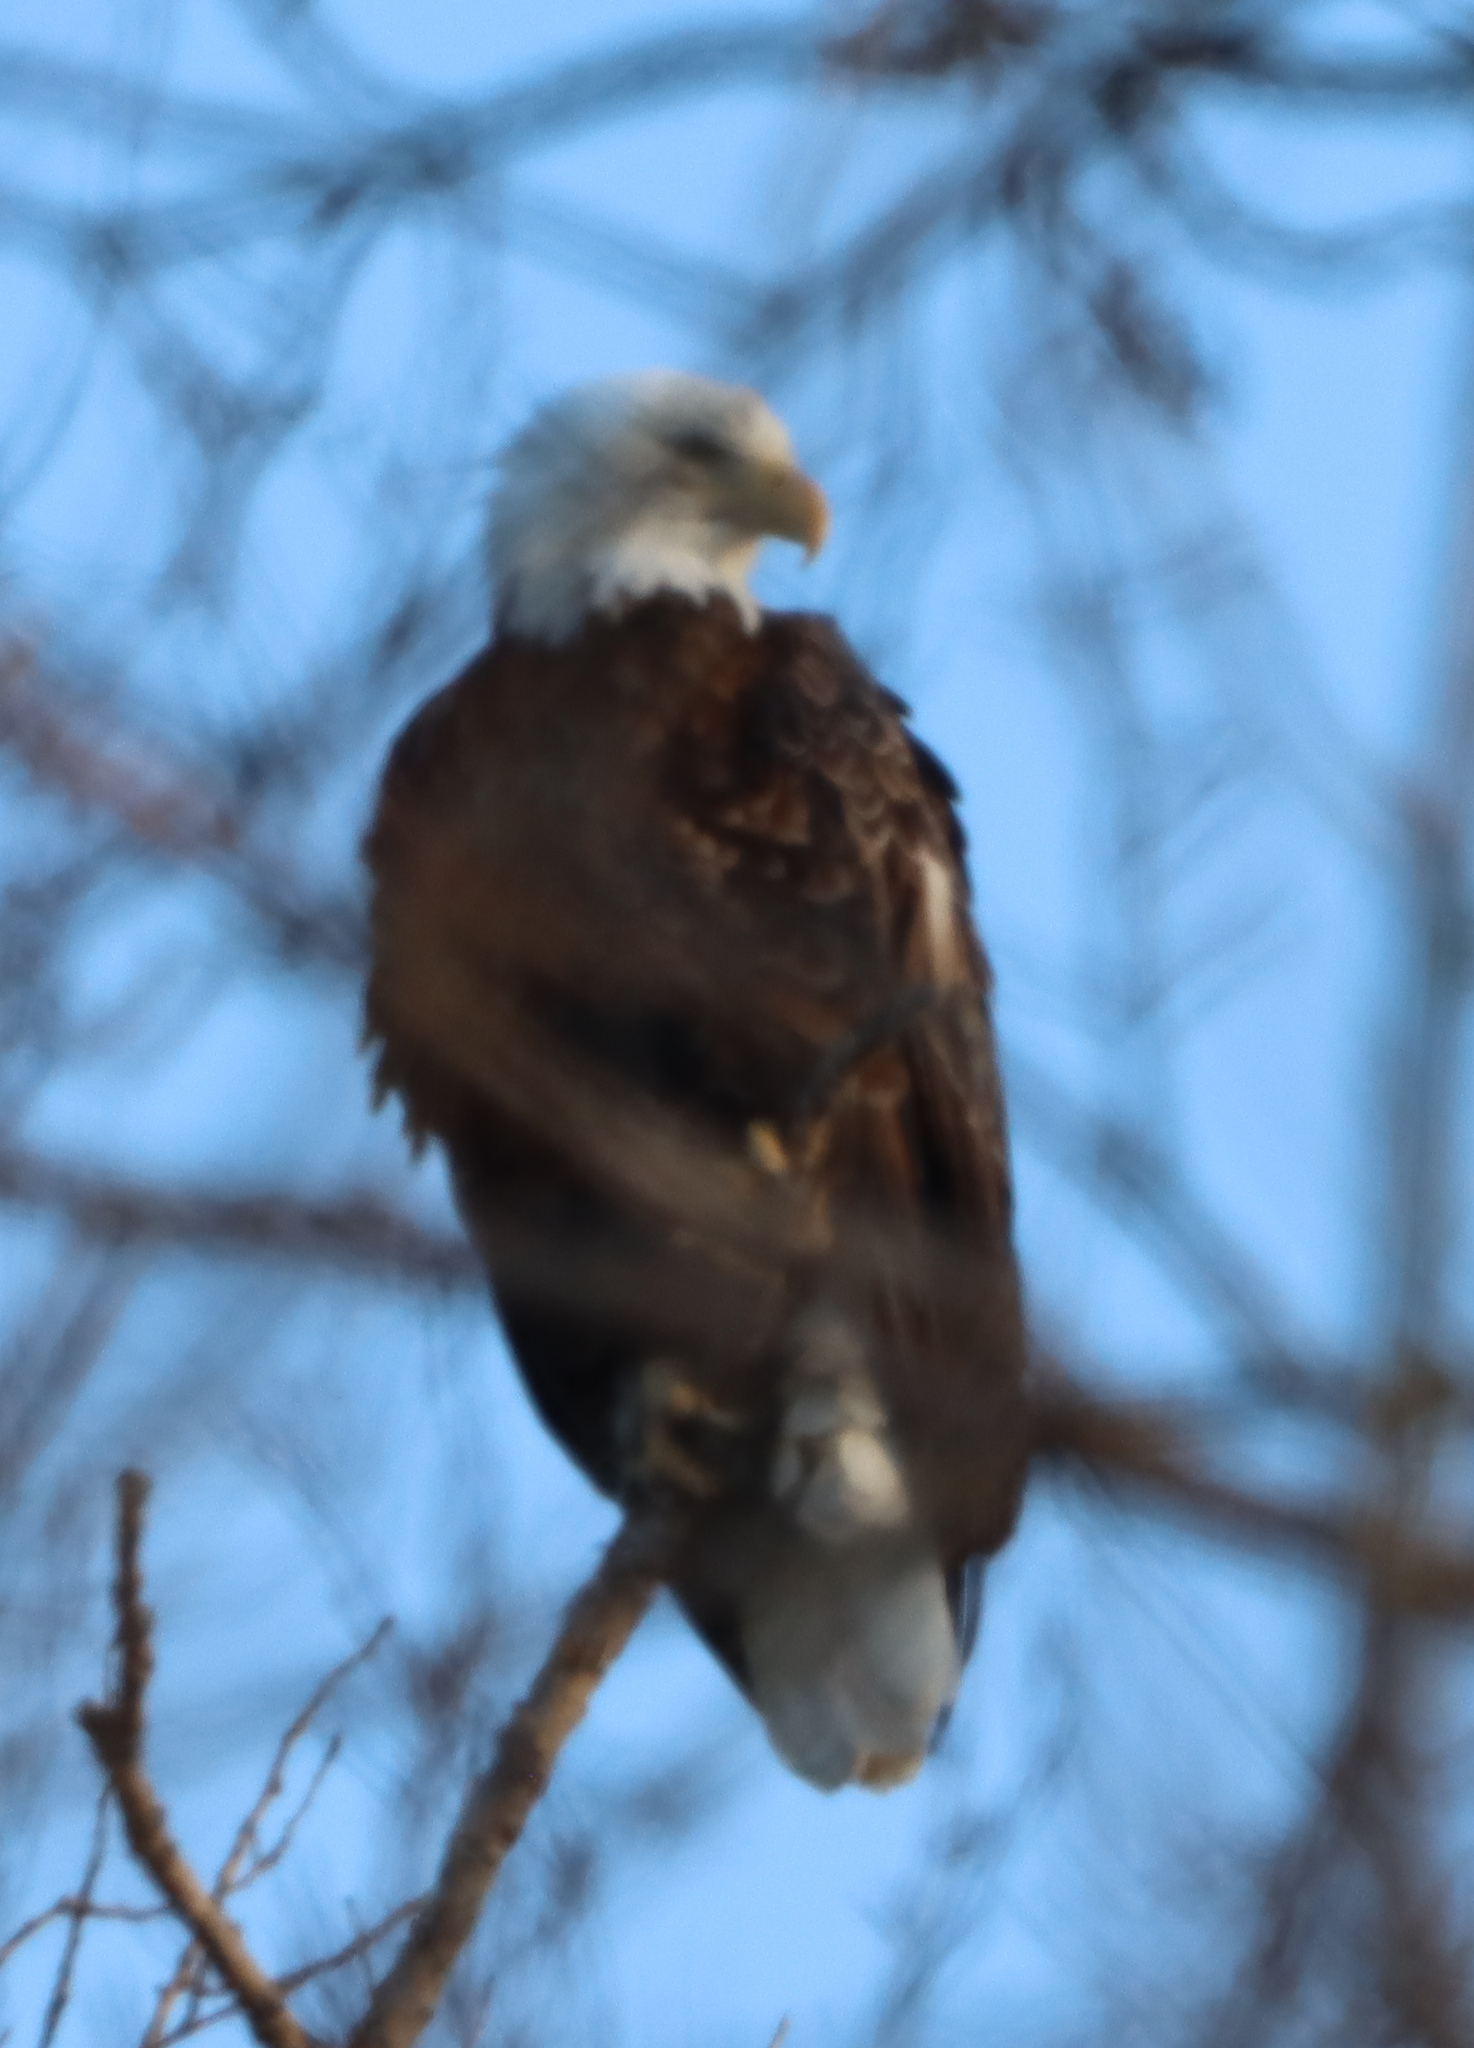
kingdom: Animalia
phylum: Chordata
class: Aves
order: Accipitriformes
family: Accipitridae
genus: Haliaeetus
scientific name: Haliaeetus leucocephalus
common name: Bald eagle
